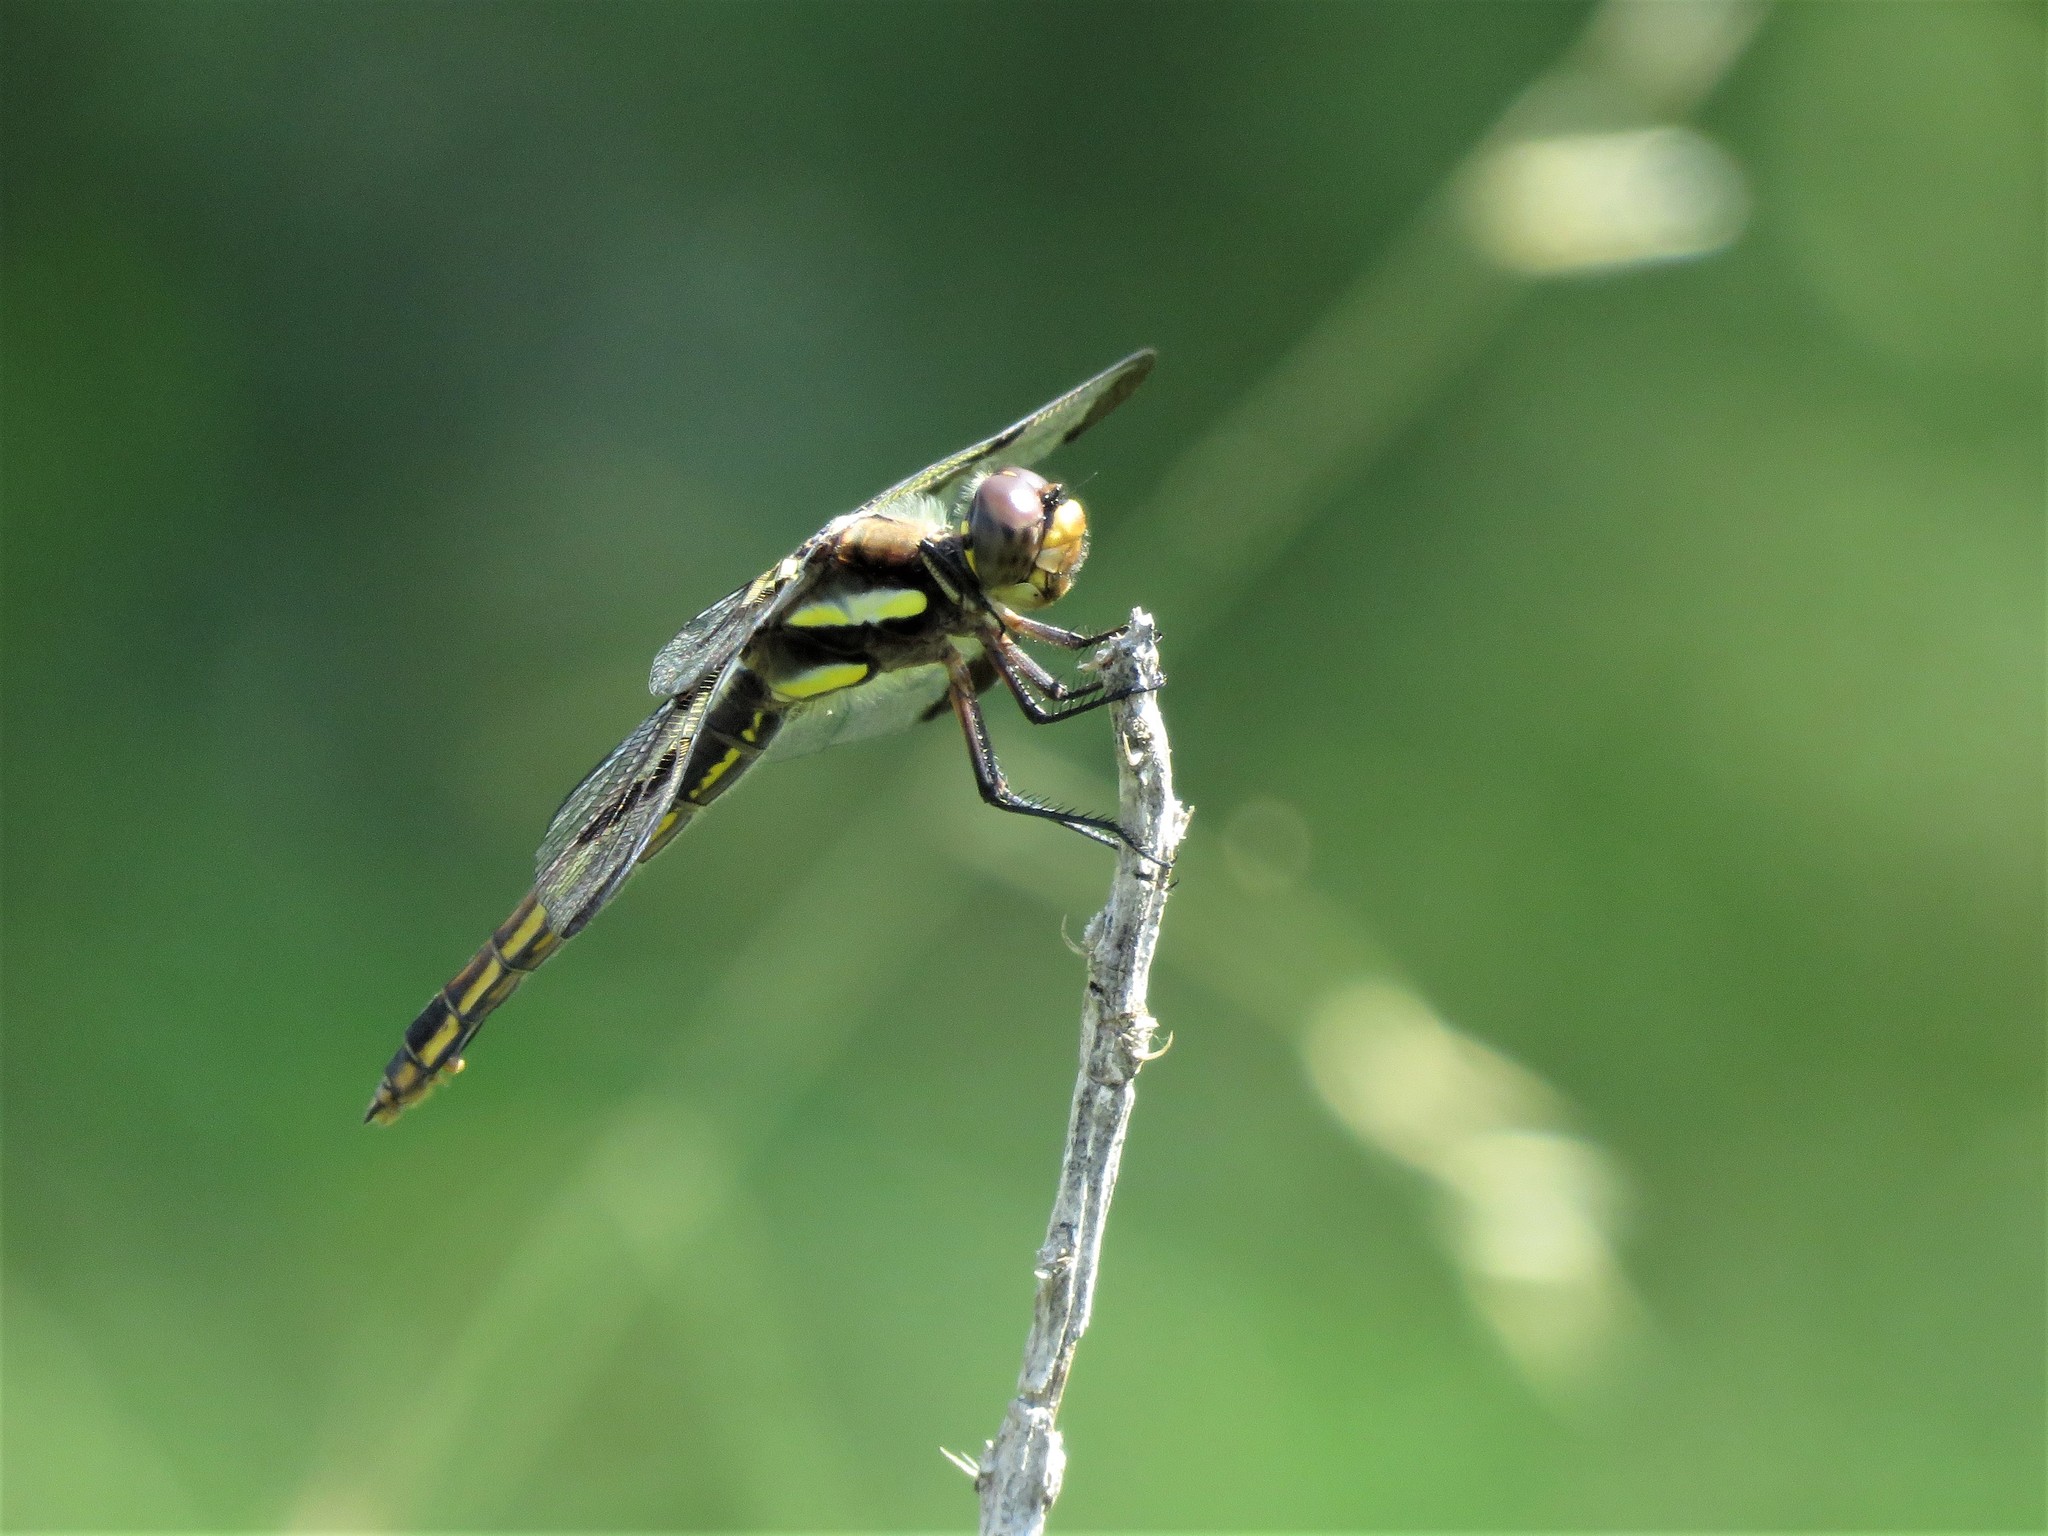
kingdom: Animalia
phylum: Arthropoda
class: Insecta
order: Odonata
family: Libellulidae
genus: Libellula
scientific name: Libellula pulchella
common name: Twelve-spotted skimmer
